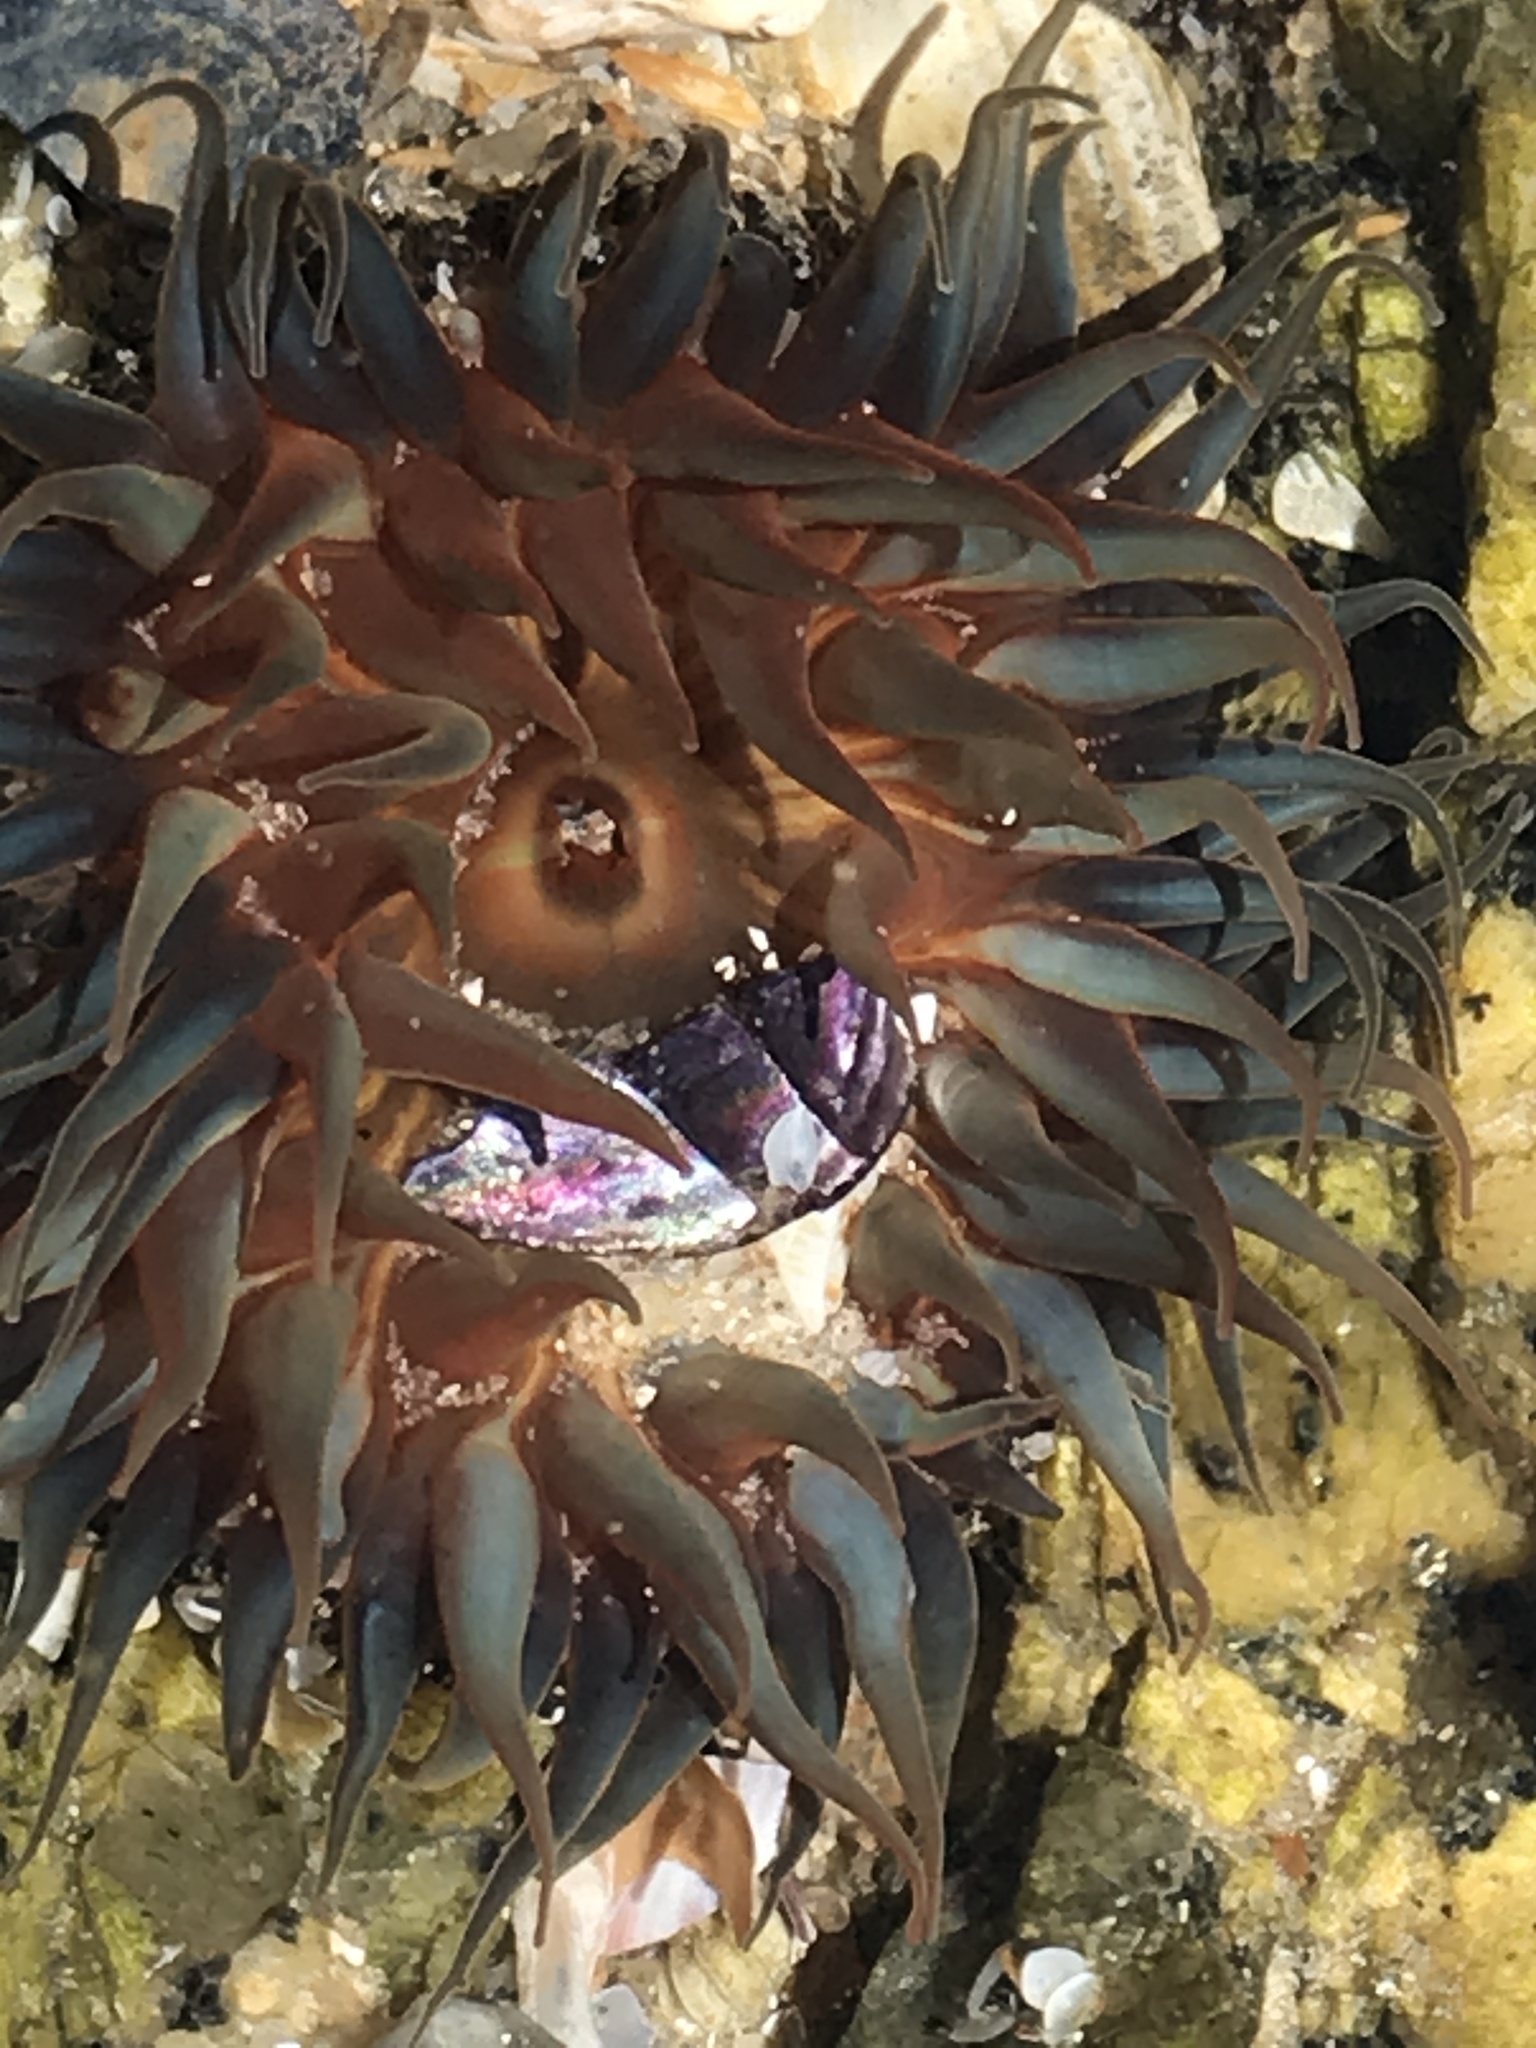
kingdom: Animalia
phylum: Cnidaria
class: Anthozoa
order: Actiniaria
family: Actiniidae
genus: Bunodosoma
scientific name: Bunodosoma cangicum
